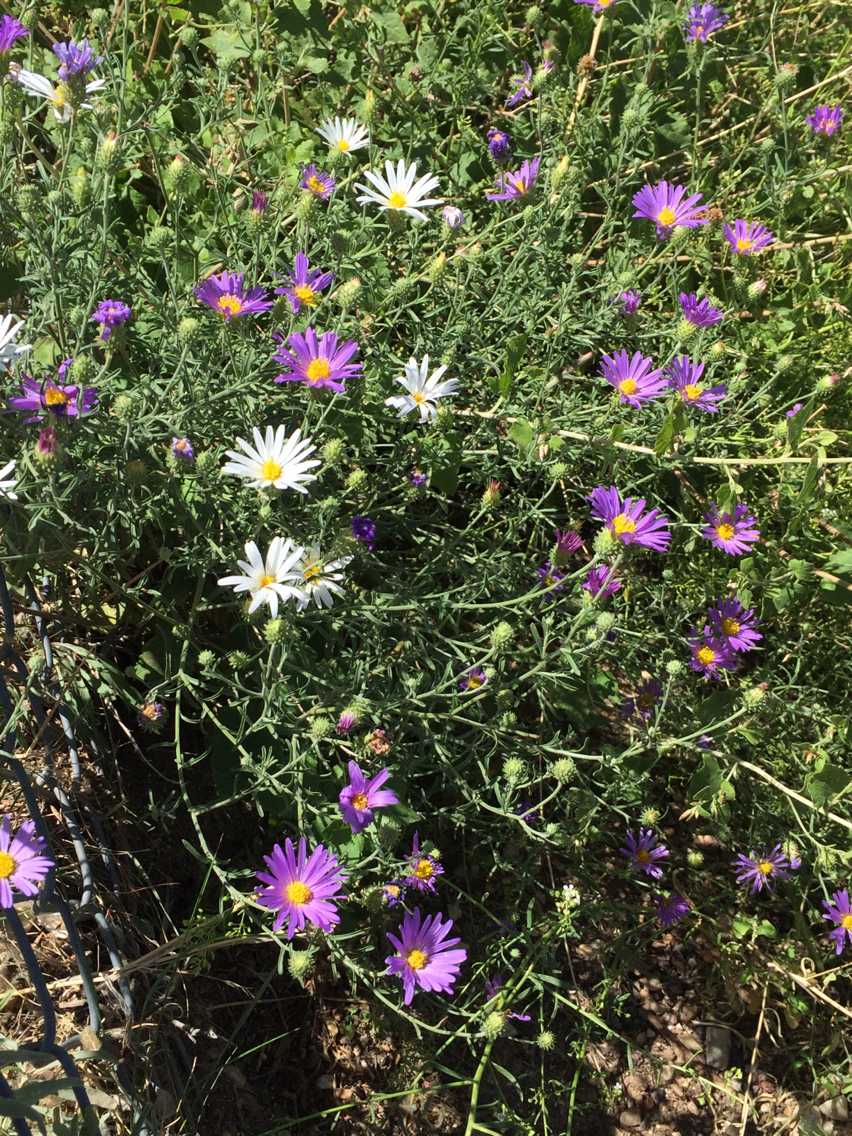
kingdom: Plantae
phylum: Tracheophyta
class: Magnoliopsida
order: Asterales
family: Asteraceae
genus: Dieteria
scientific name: Dieteria canescens
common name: Hoary-aster
